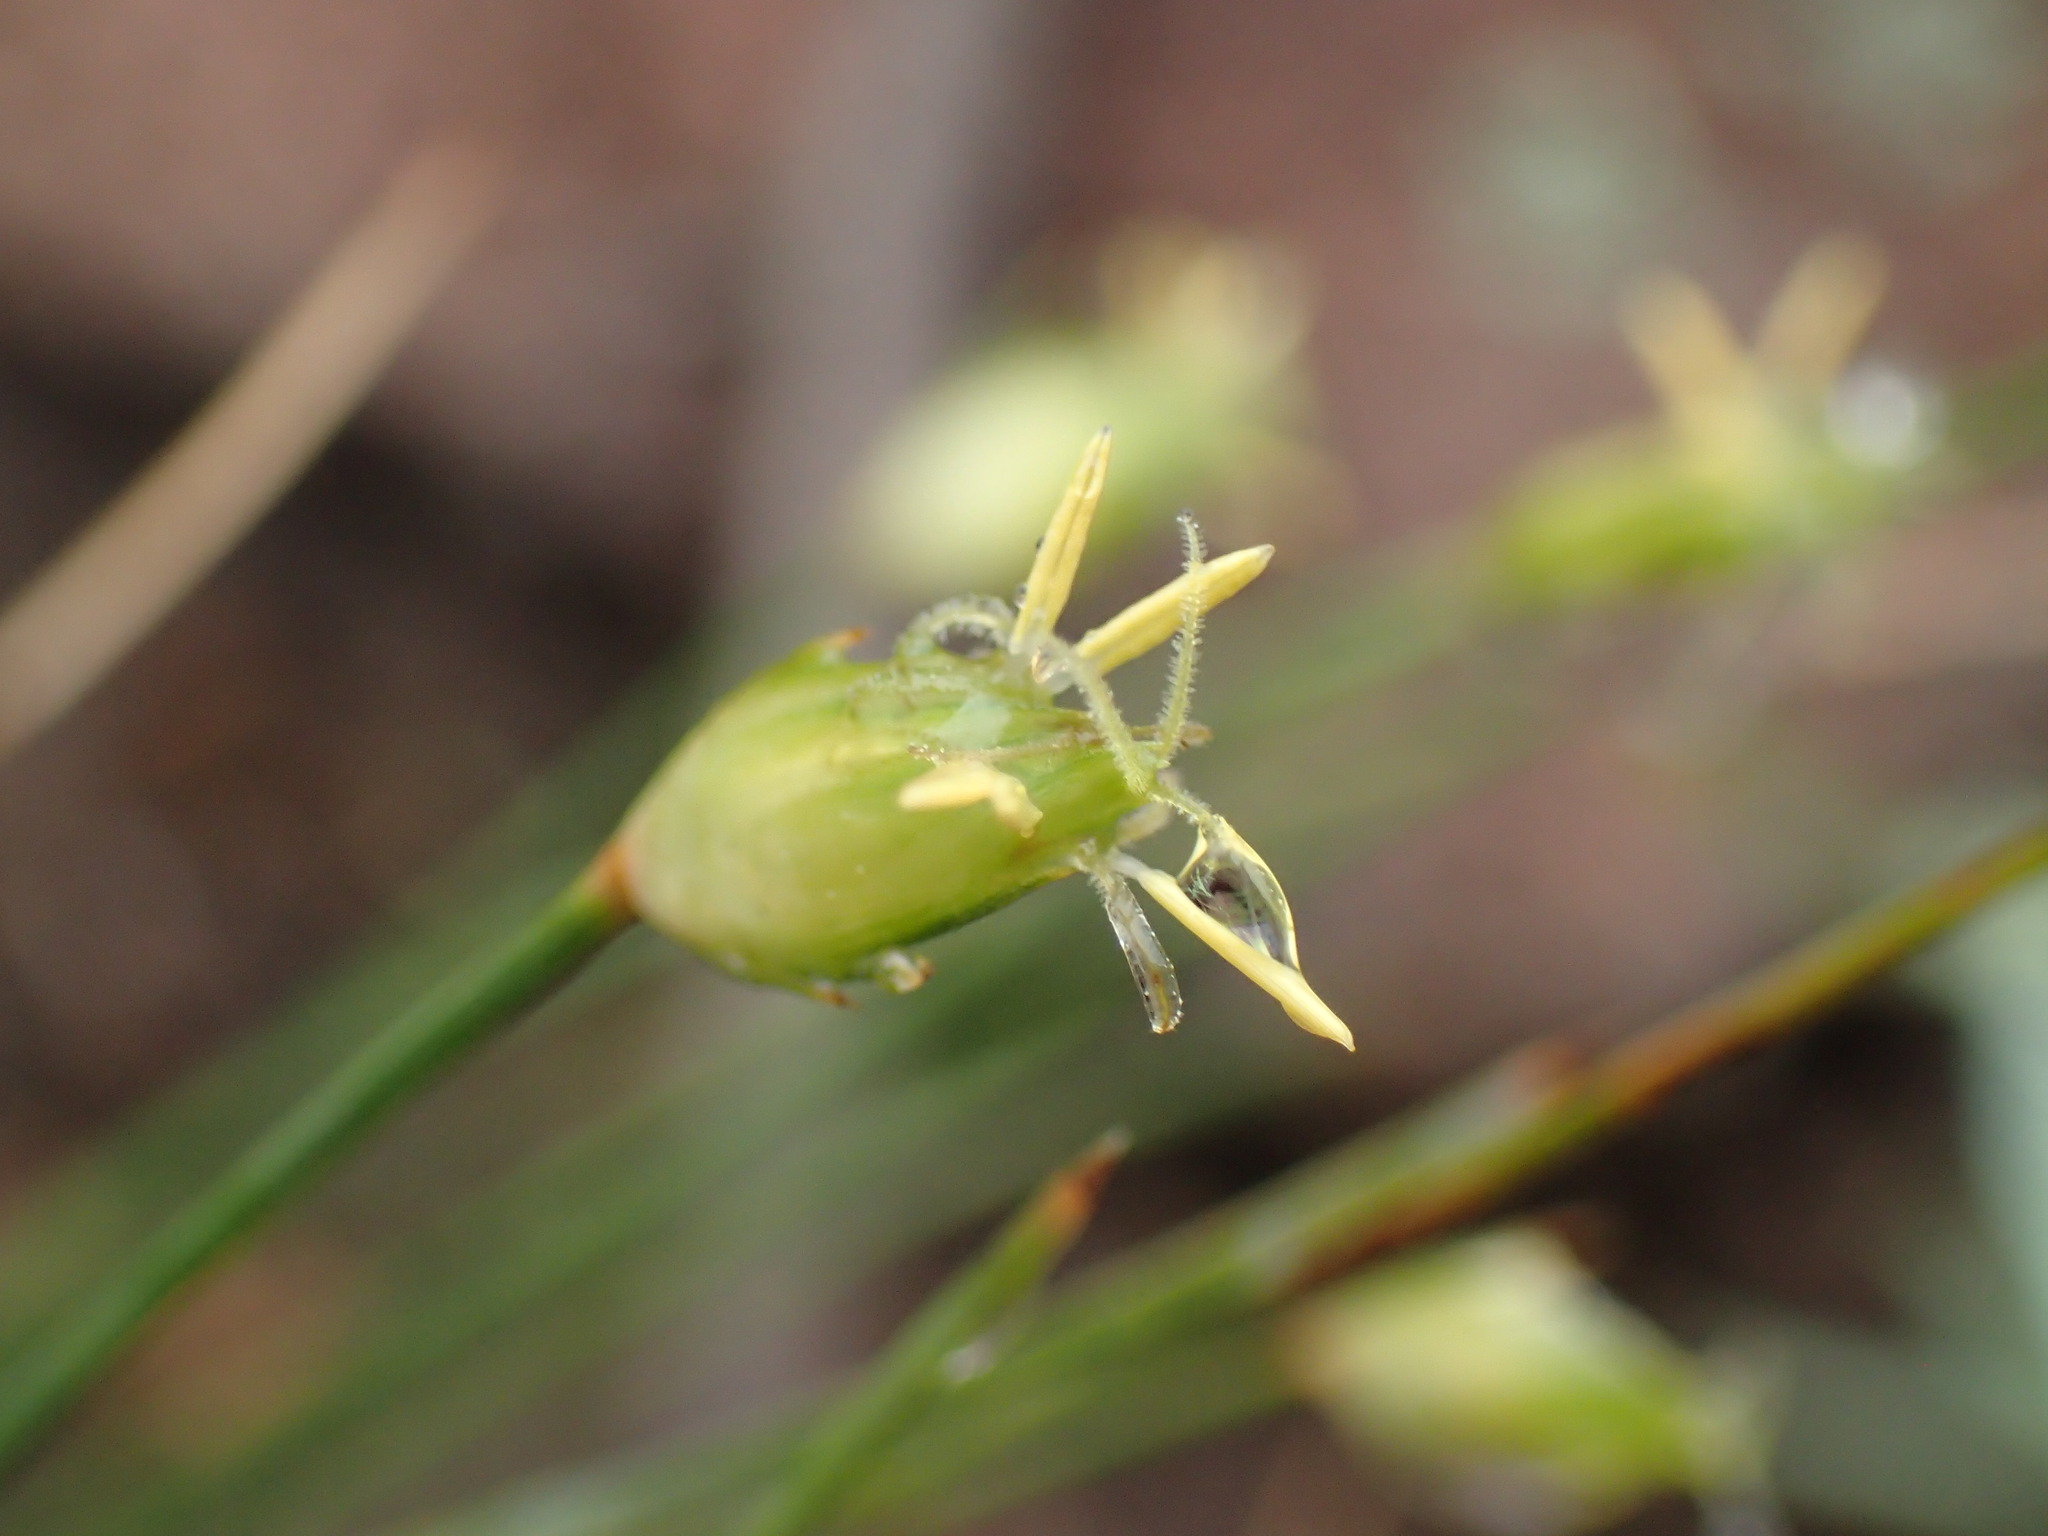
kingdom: Plantae
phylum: Tracheophyta
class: Liliopsida
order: Poales
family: Cyperaceae
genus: Abildgaardia
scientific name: Abildgaardia ovata
